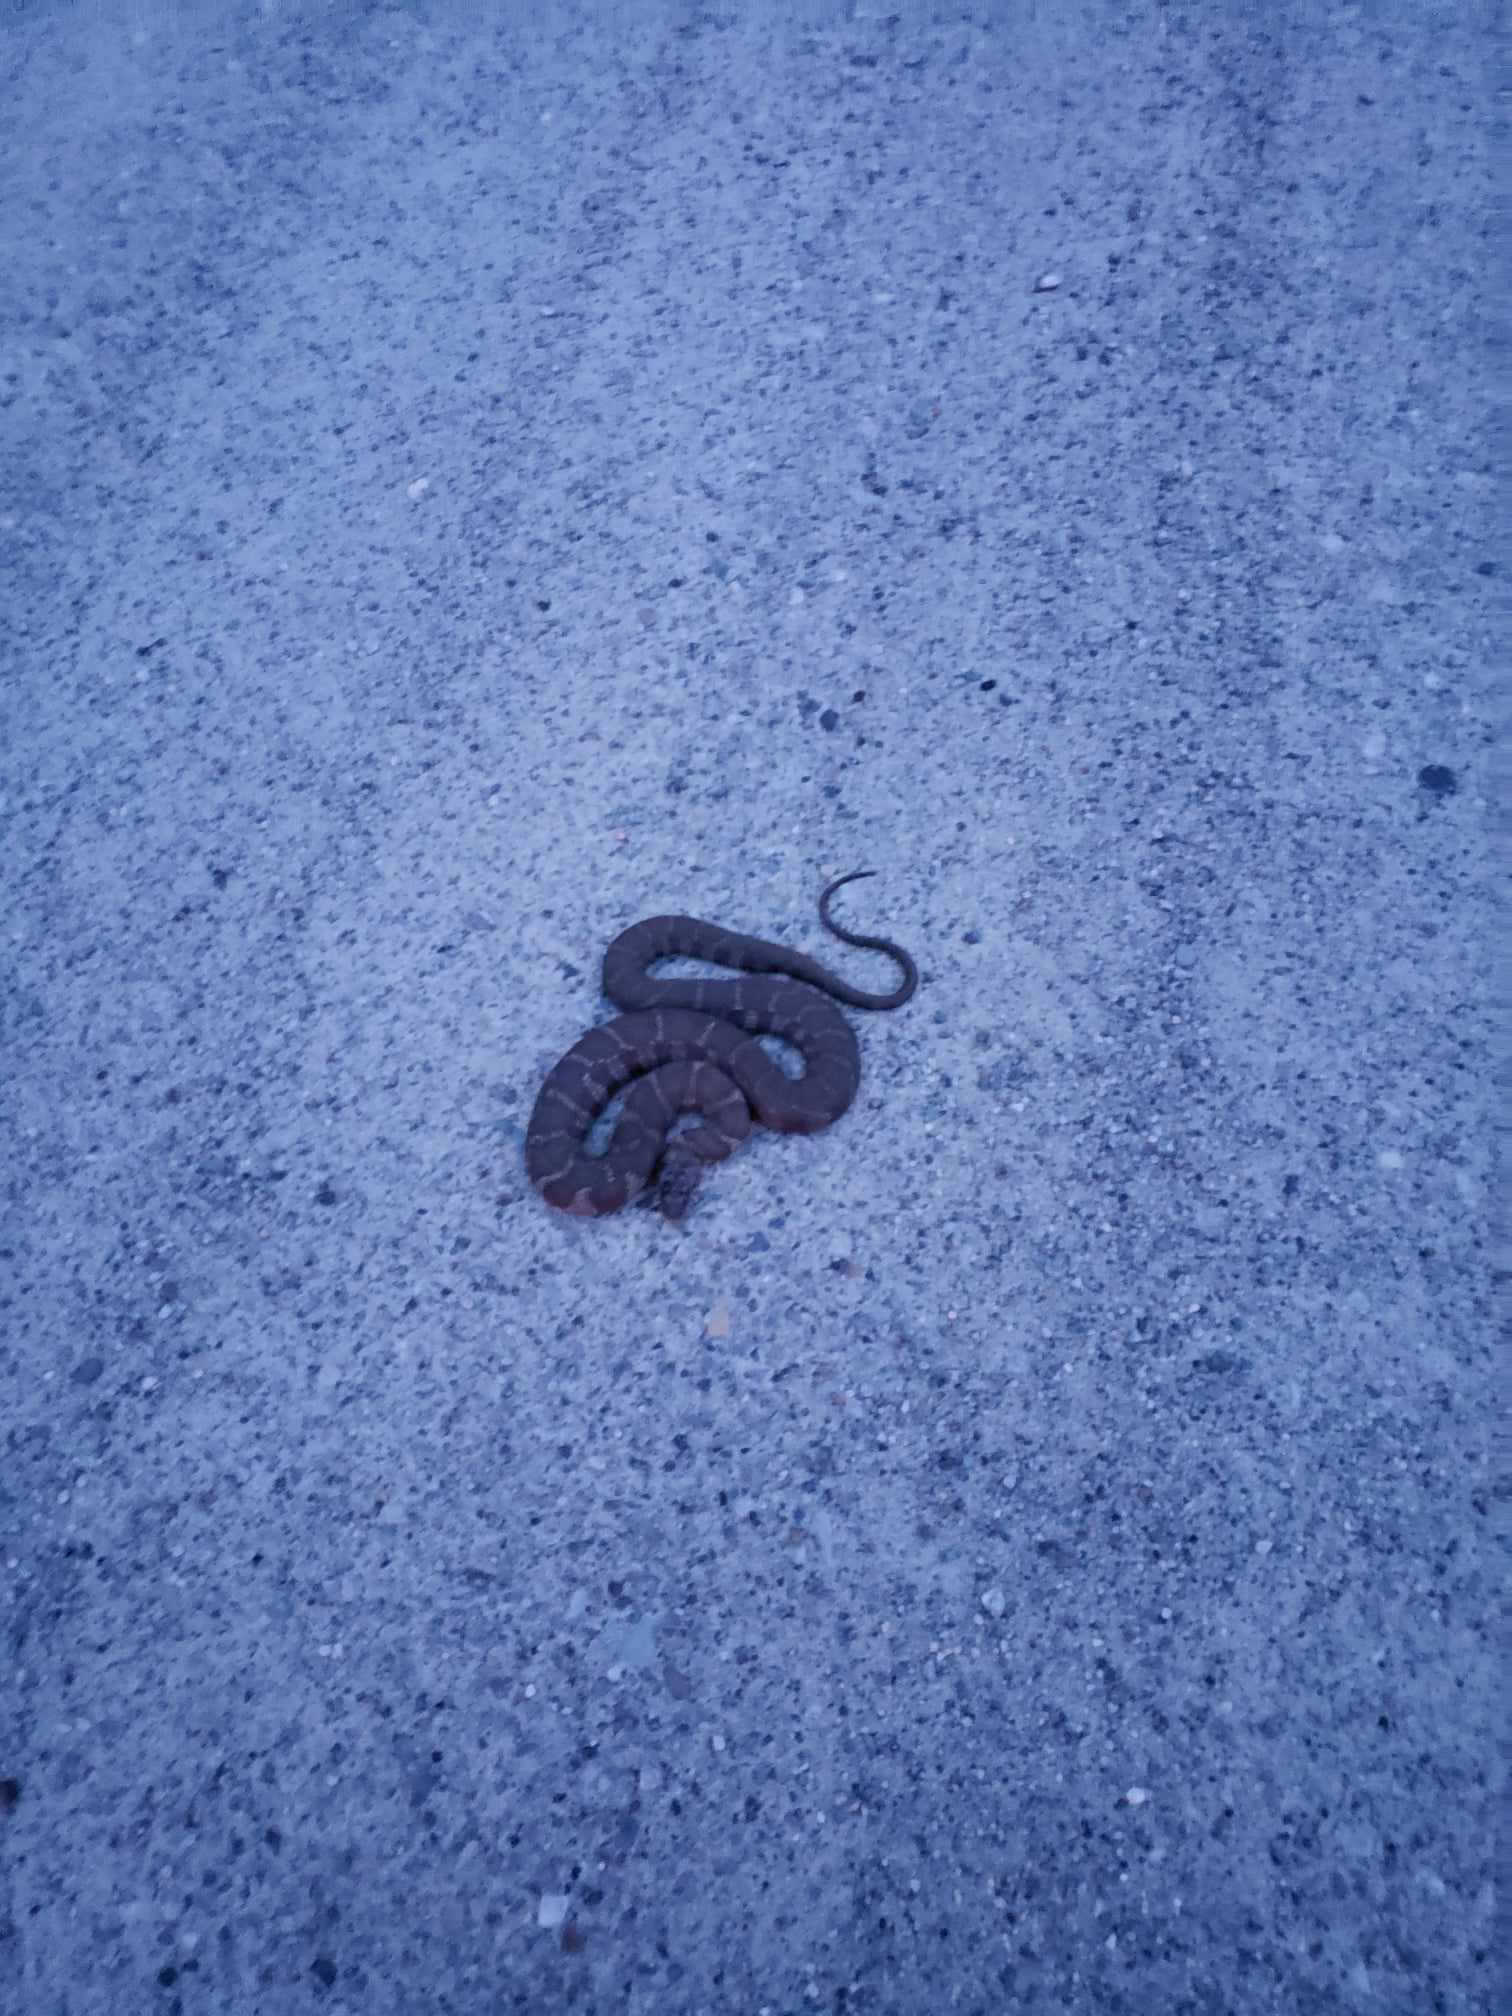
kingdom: Animalia
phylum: Chordata
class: Squamata
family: Colubridae
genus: Nerodia
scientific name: Nerodia sipedon
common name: Northern water snake
